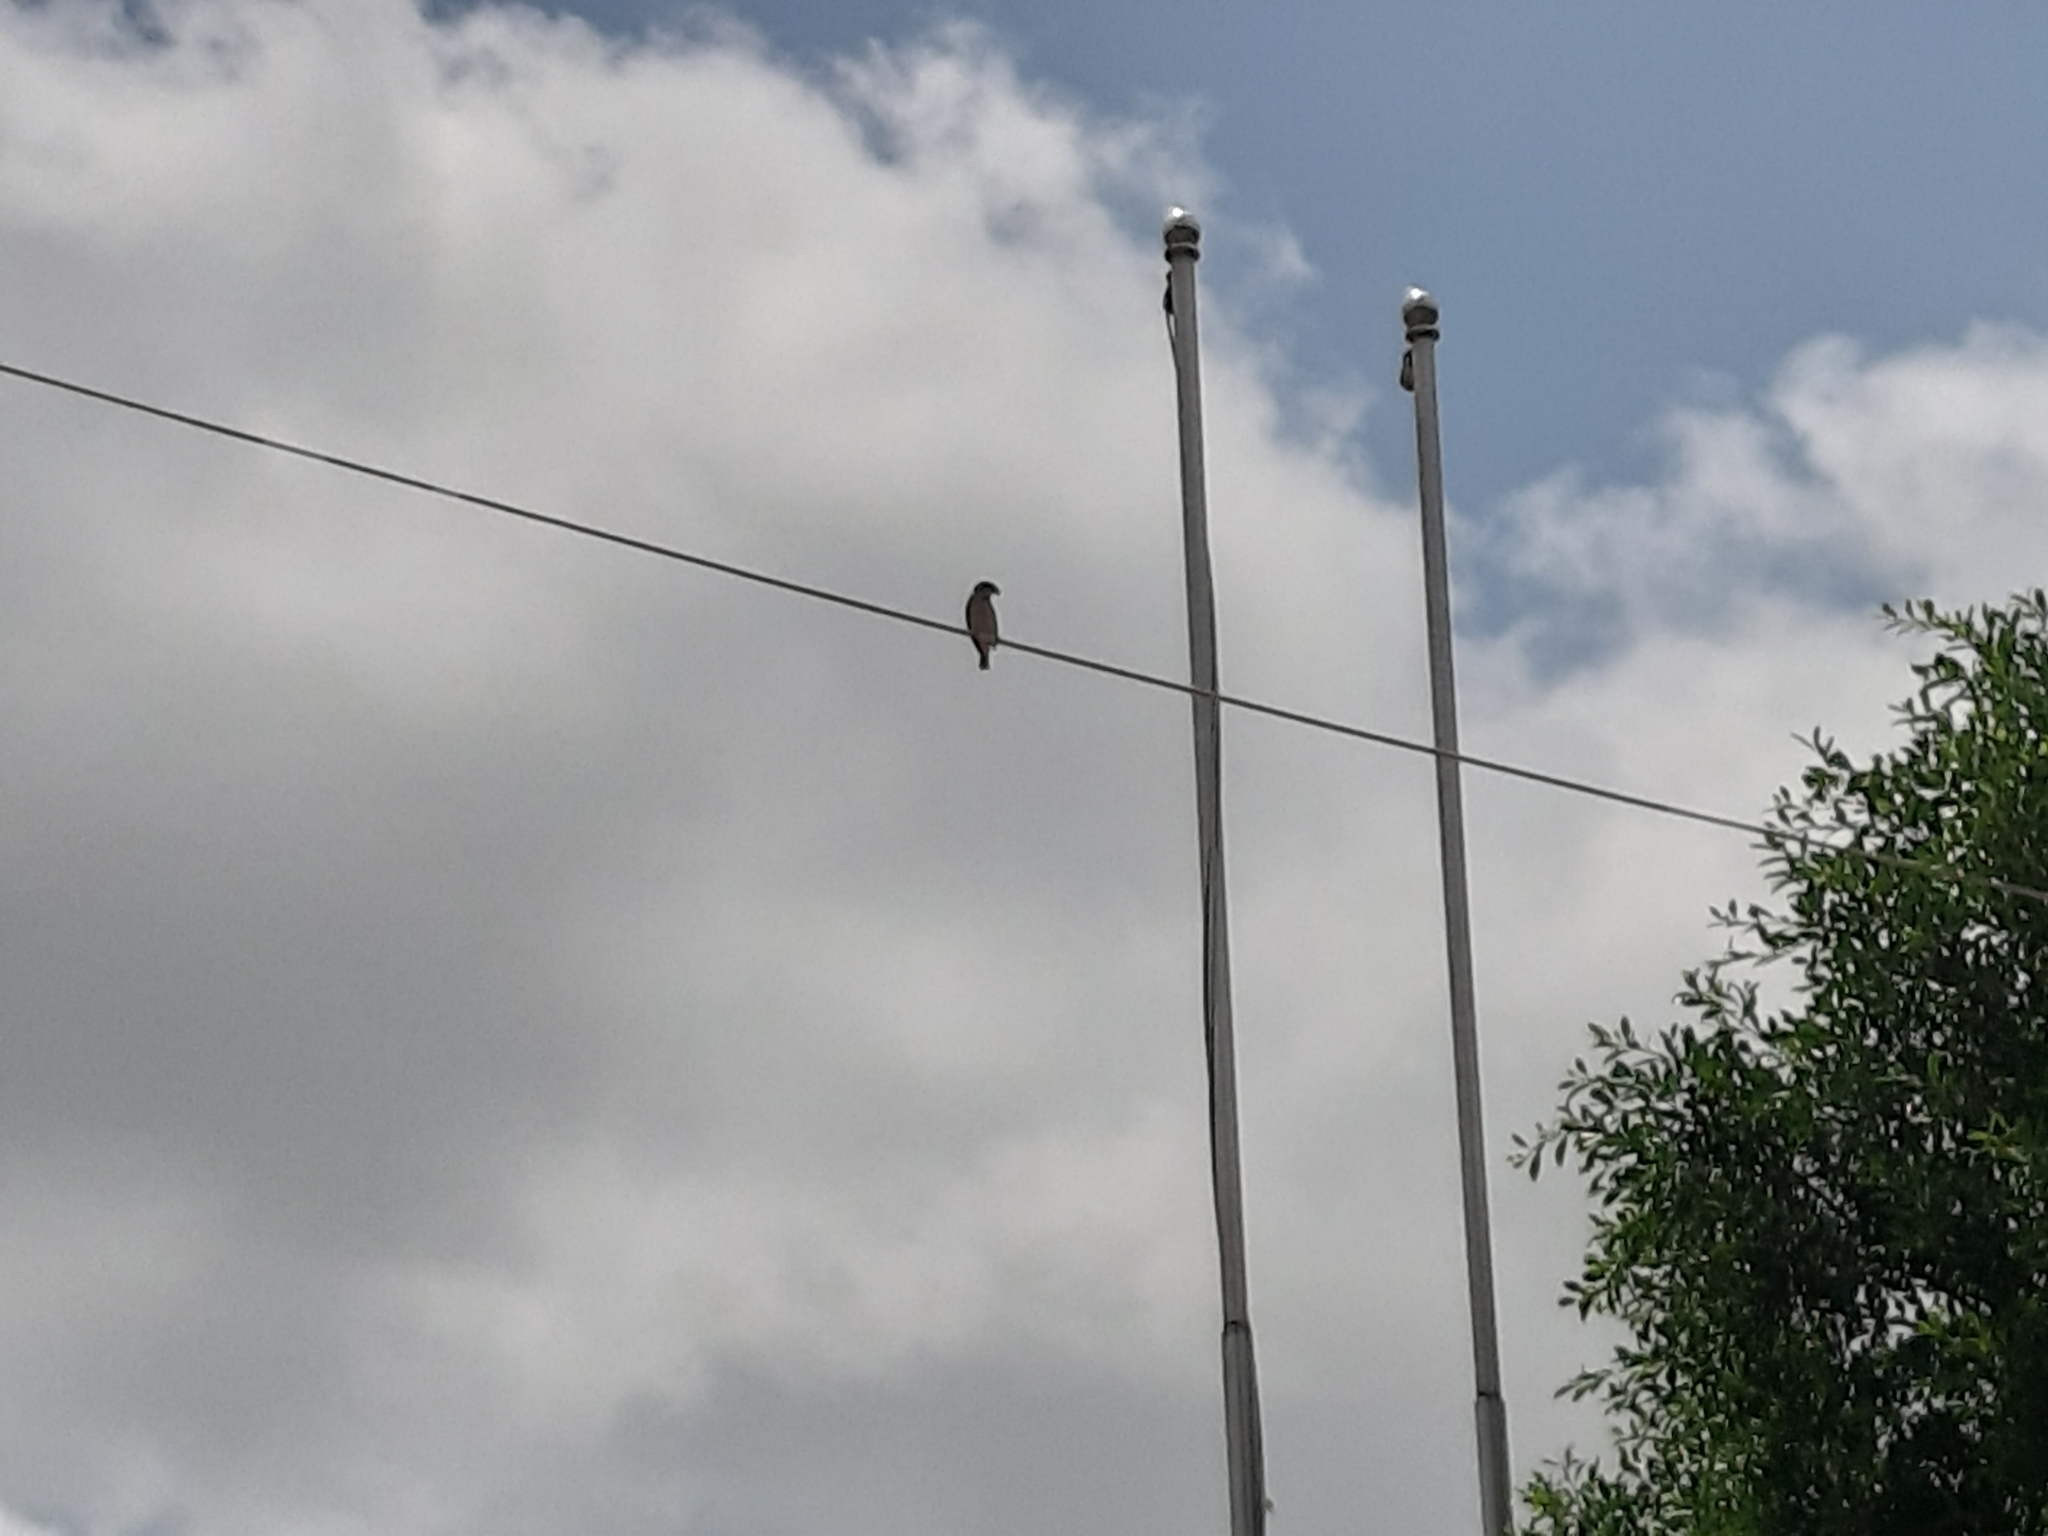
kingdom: Animalia
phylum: Chordata
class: Aves
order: Passeriformes
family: Passeridae
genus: Passer
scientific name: Passer montanus
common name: Eurasian tree sparrow
